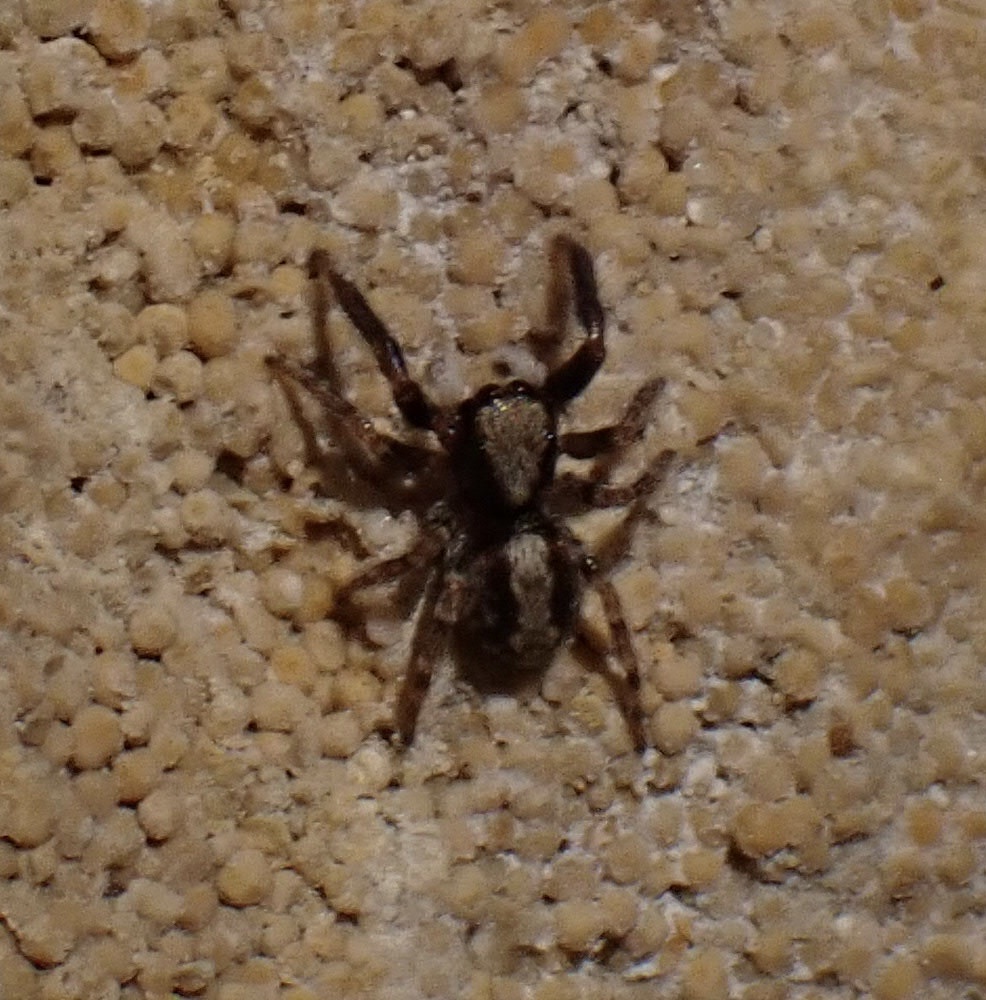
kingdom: Animalia
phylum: Arthropoda
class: Arachnida
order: Araneae
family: Salticidae
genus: Pseudeuophrys
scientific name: Pseudeuophrys lanigera
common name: Jumping spider
